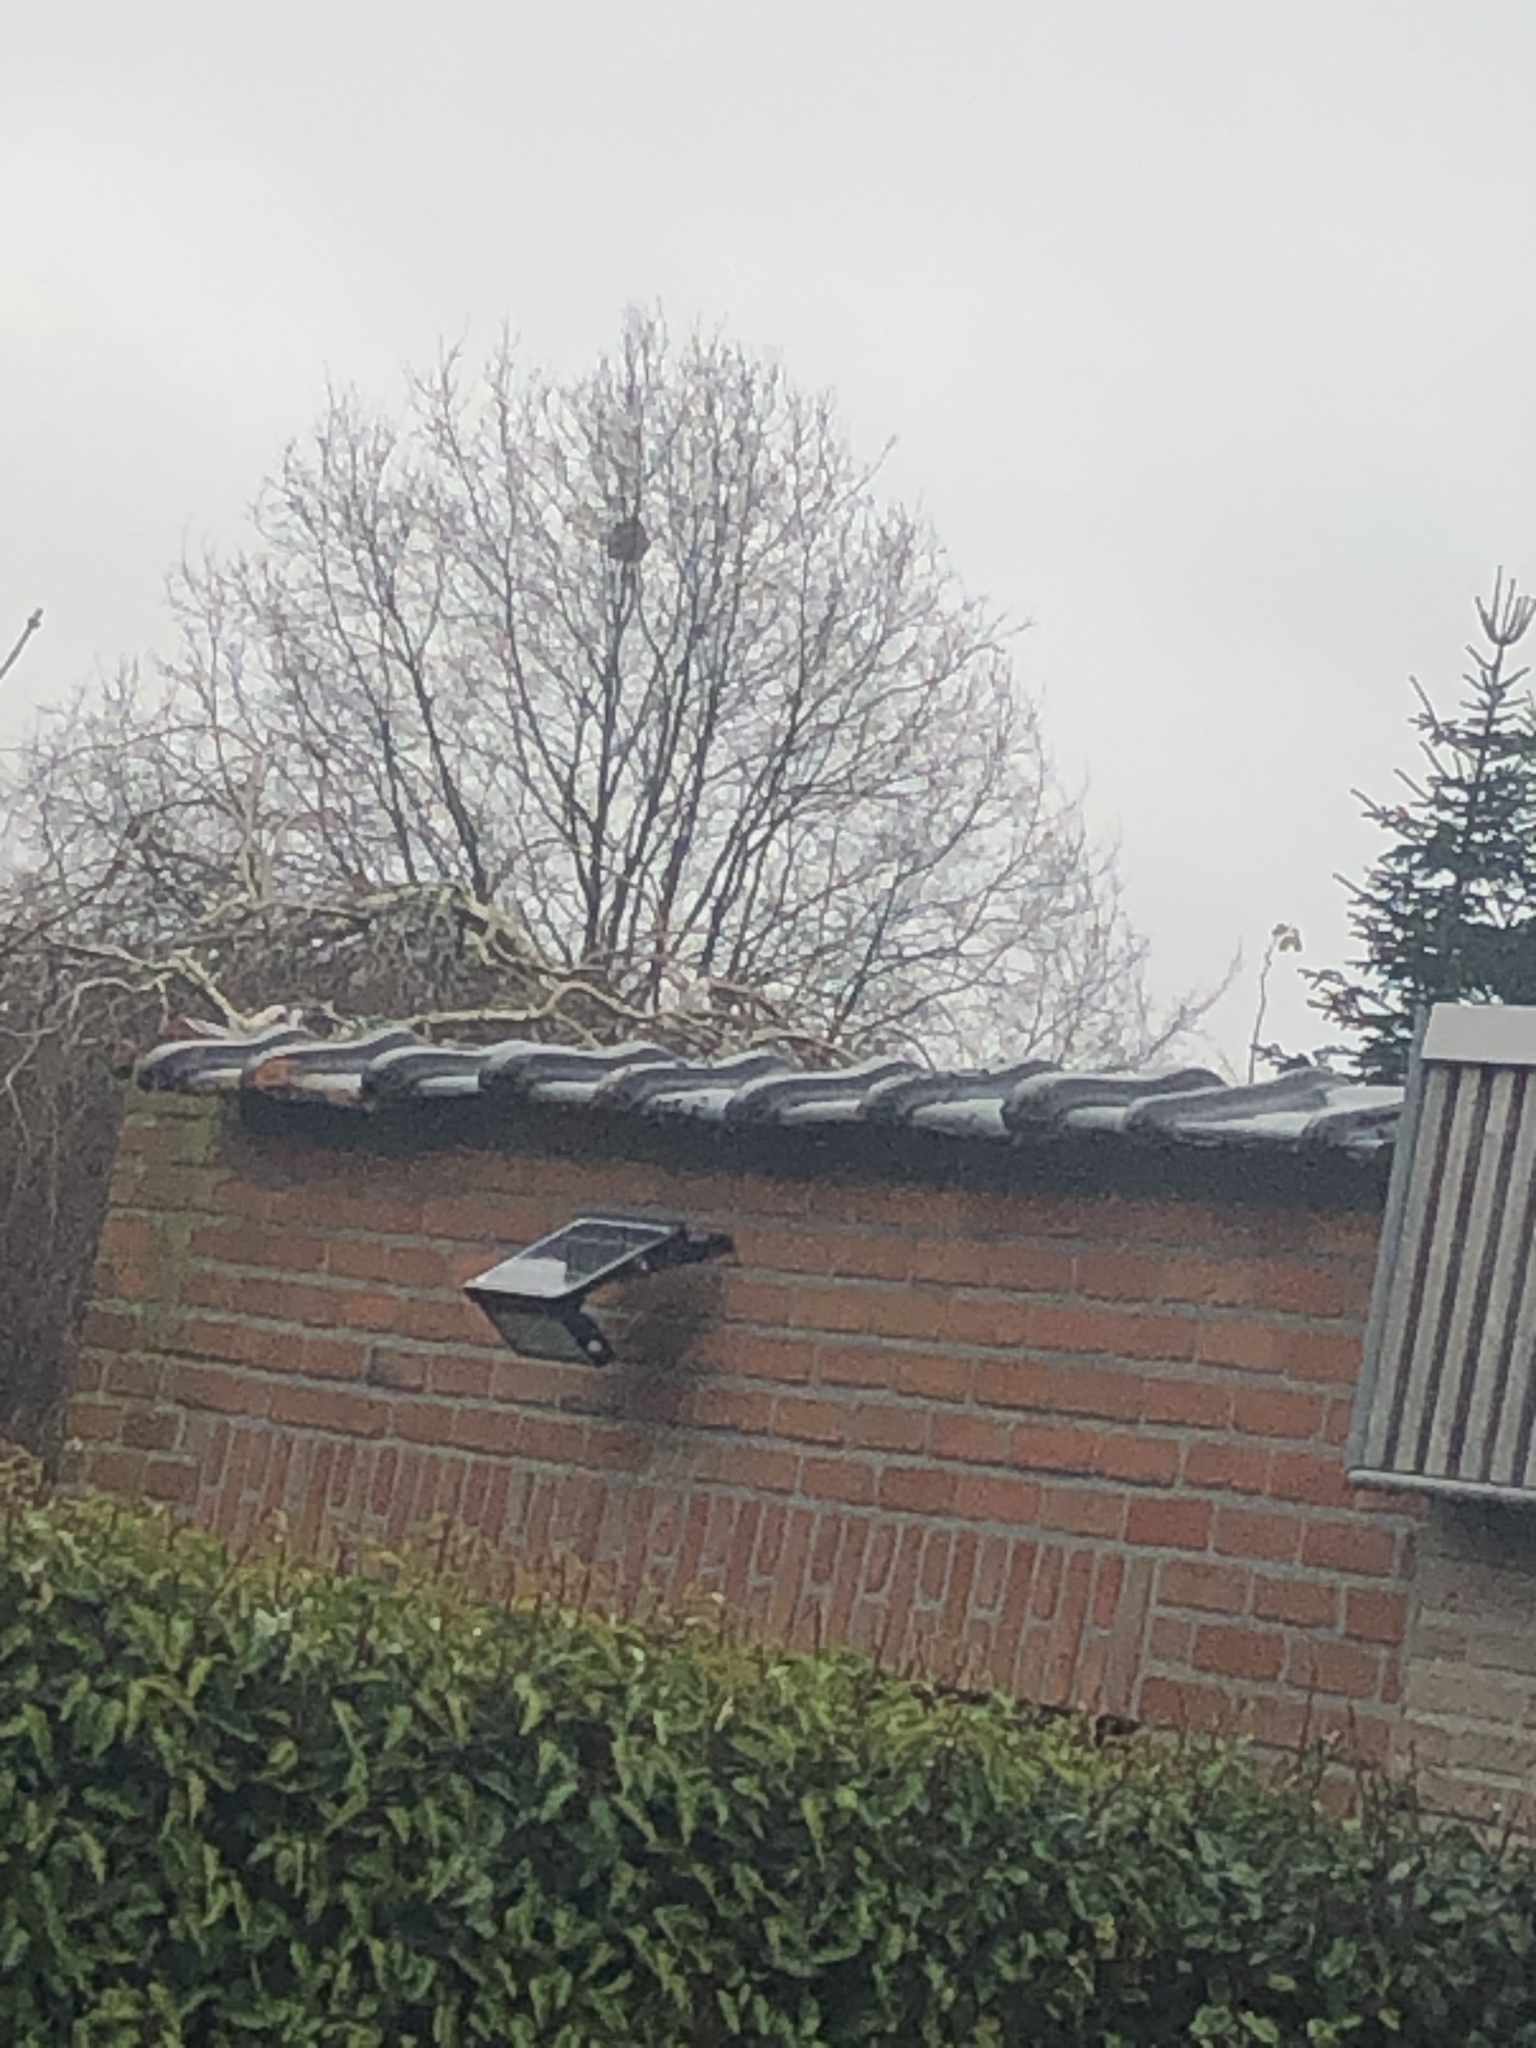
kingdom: Animalia
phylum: Arthropoda
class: Insecta
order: Hymenoptera
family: Vespidae
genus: Vespa
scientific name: Vespa velutina
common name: Asian hornet
